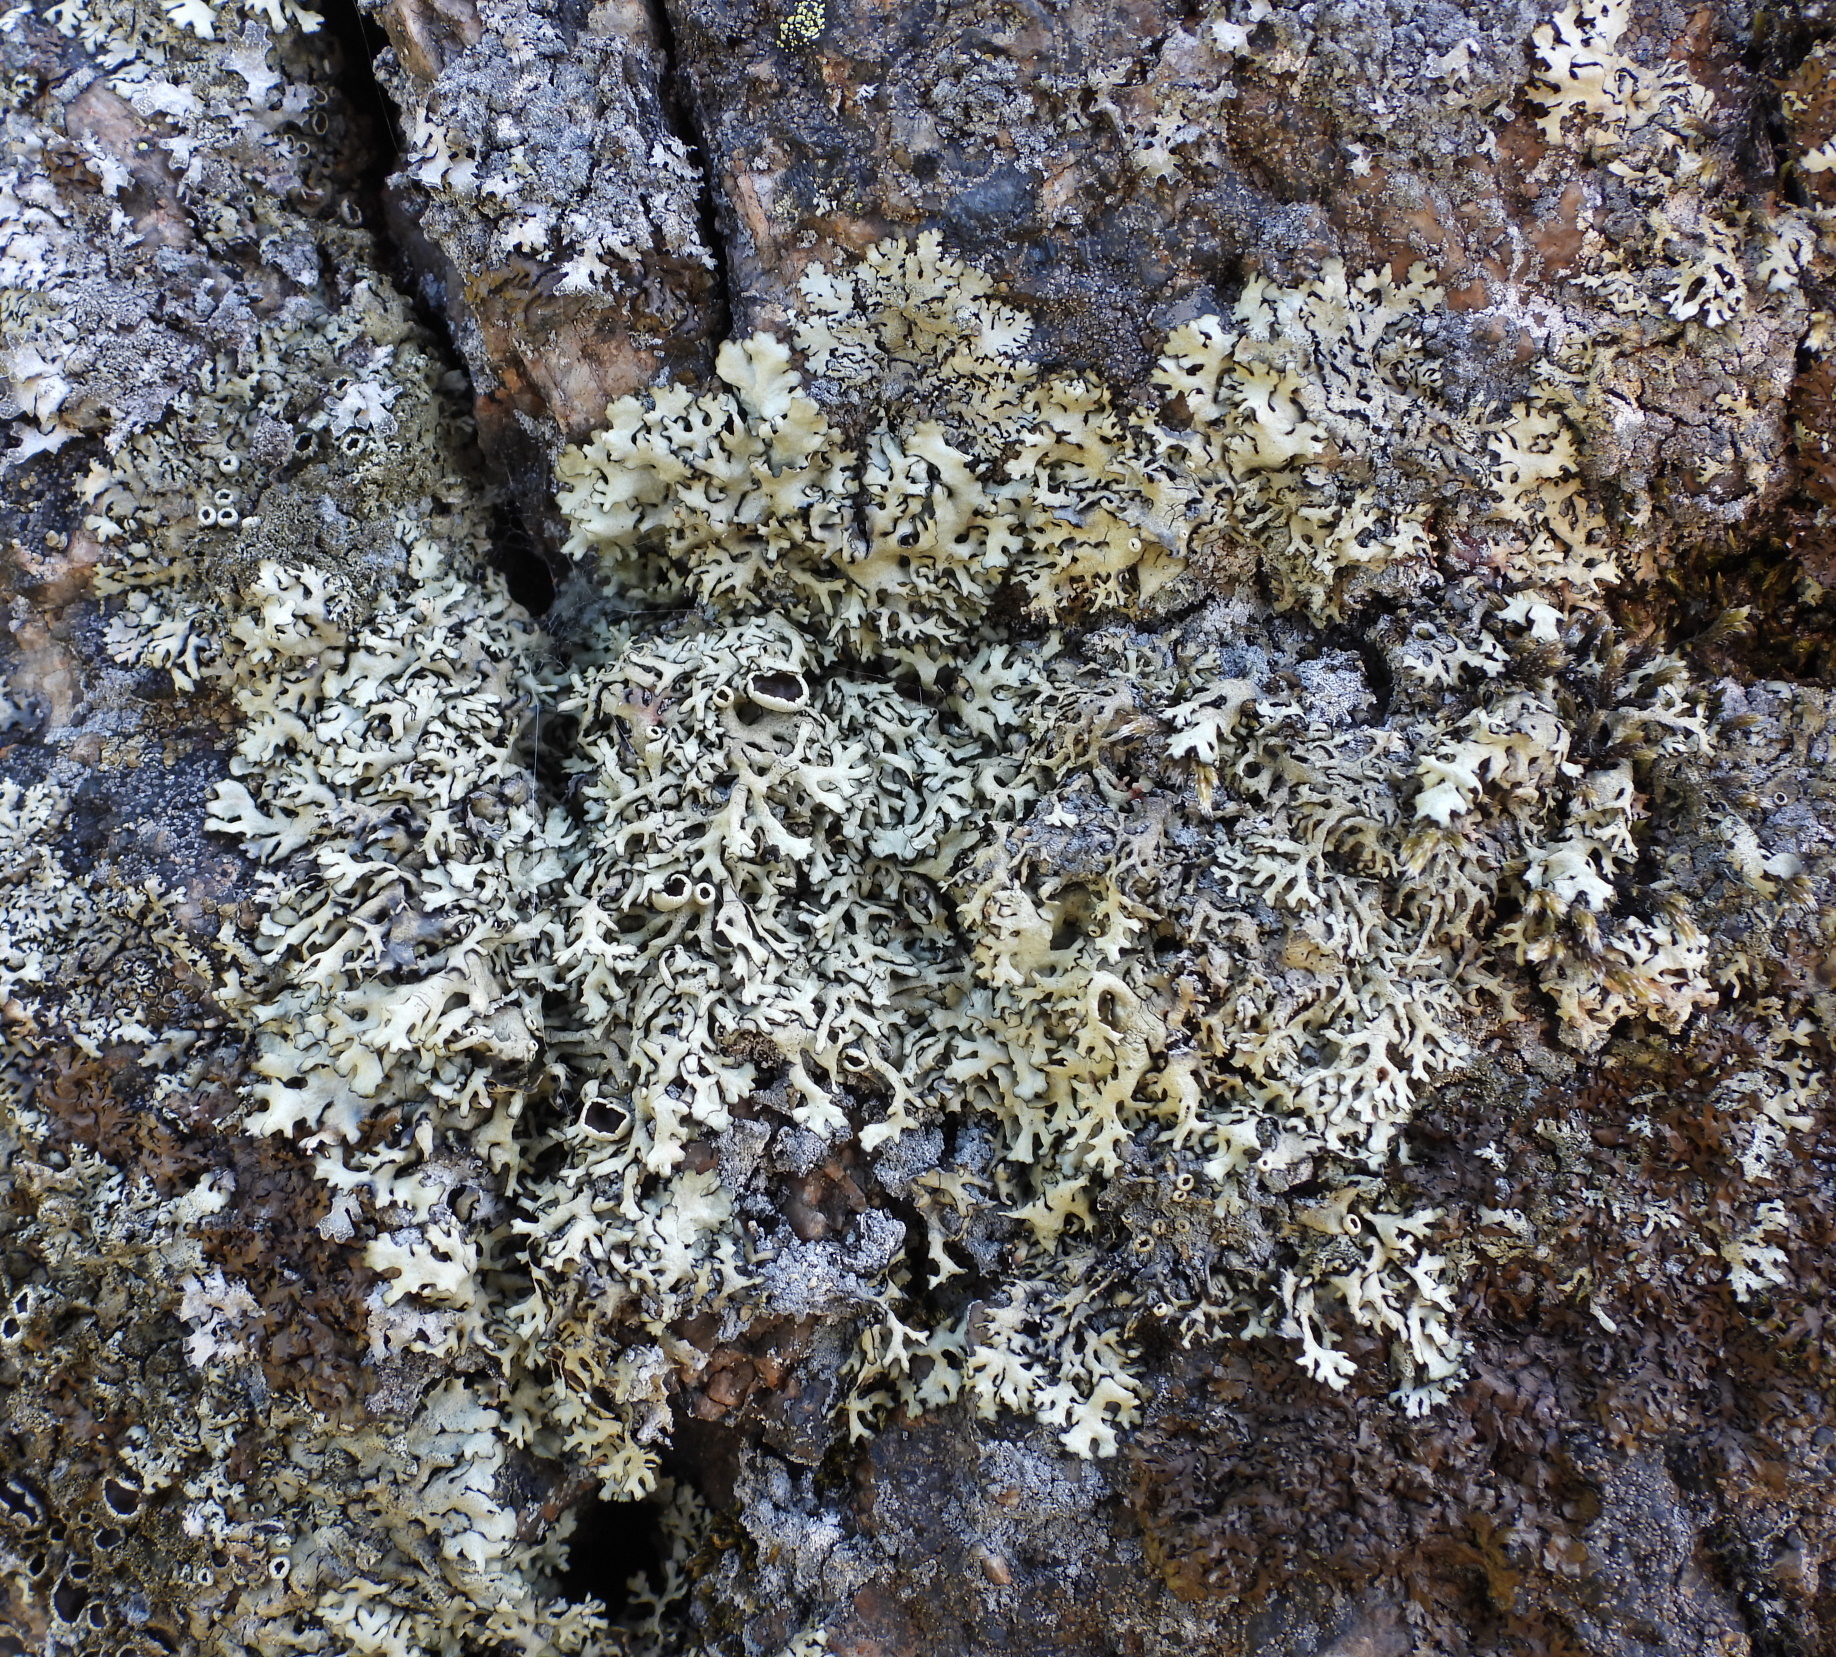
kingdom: Fungi
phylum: Ascomycota
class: Lecanoromycetes
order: Lecanorales
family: Parmeliaceae
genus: Xanthoparmelia
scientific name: Xanthoparmelia stenophylla
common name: Shingled rock shield
